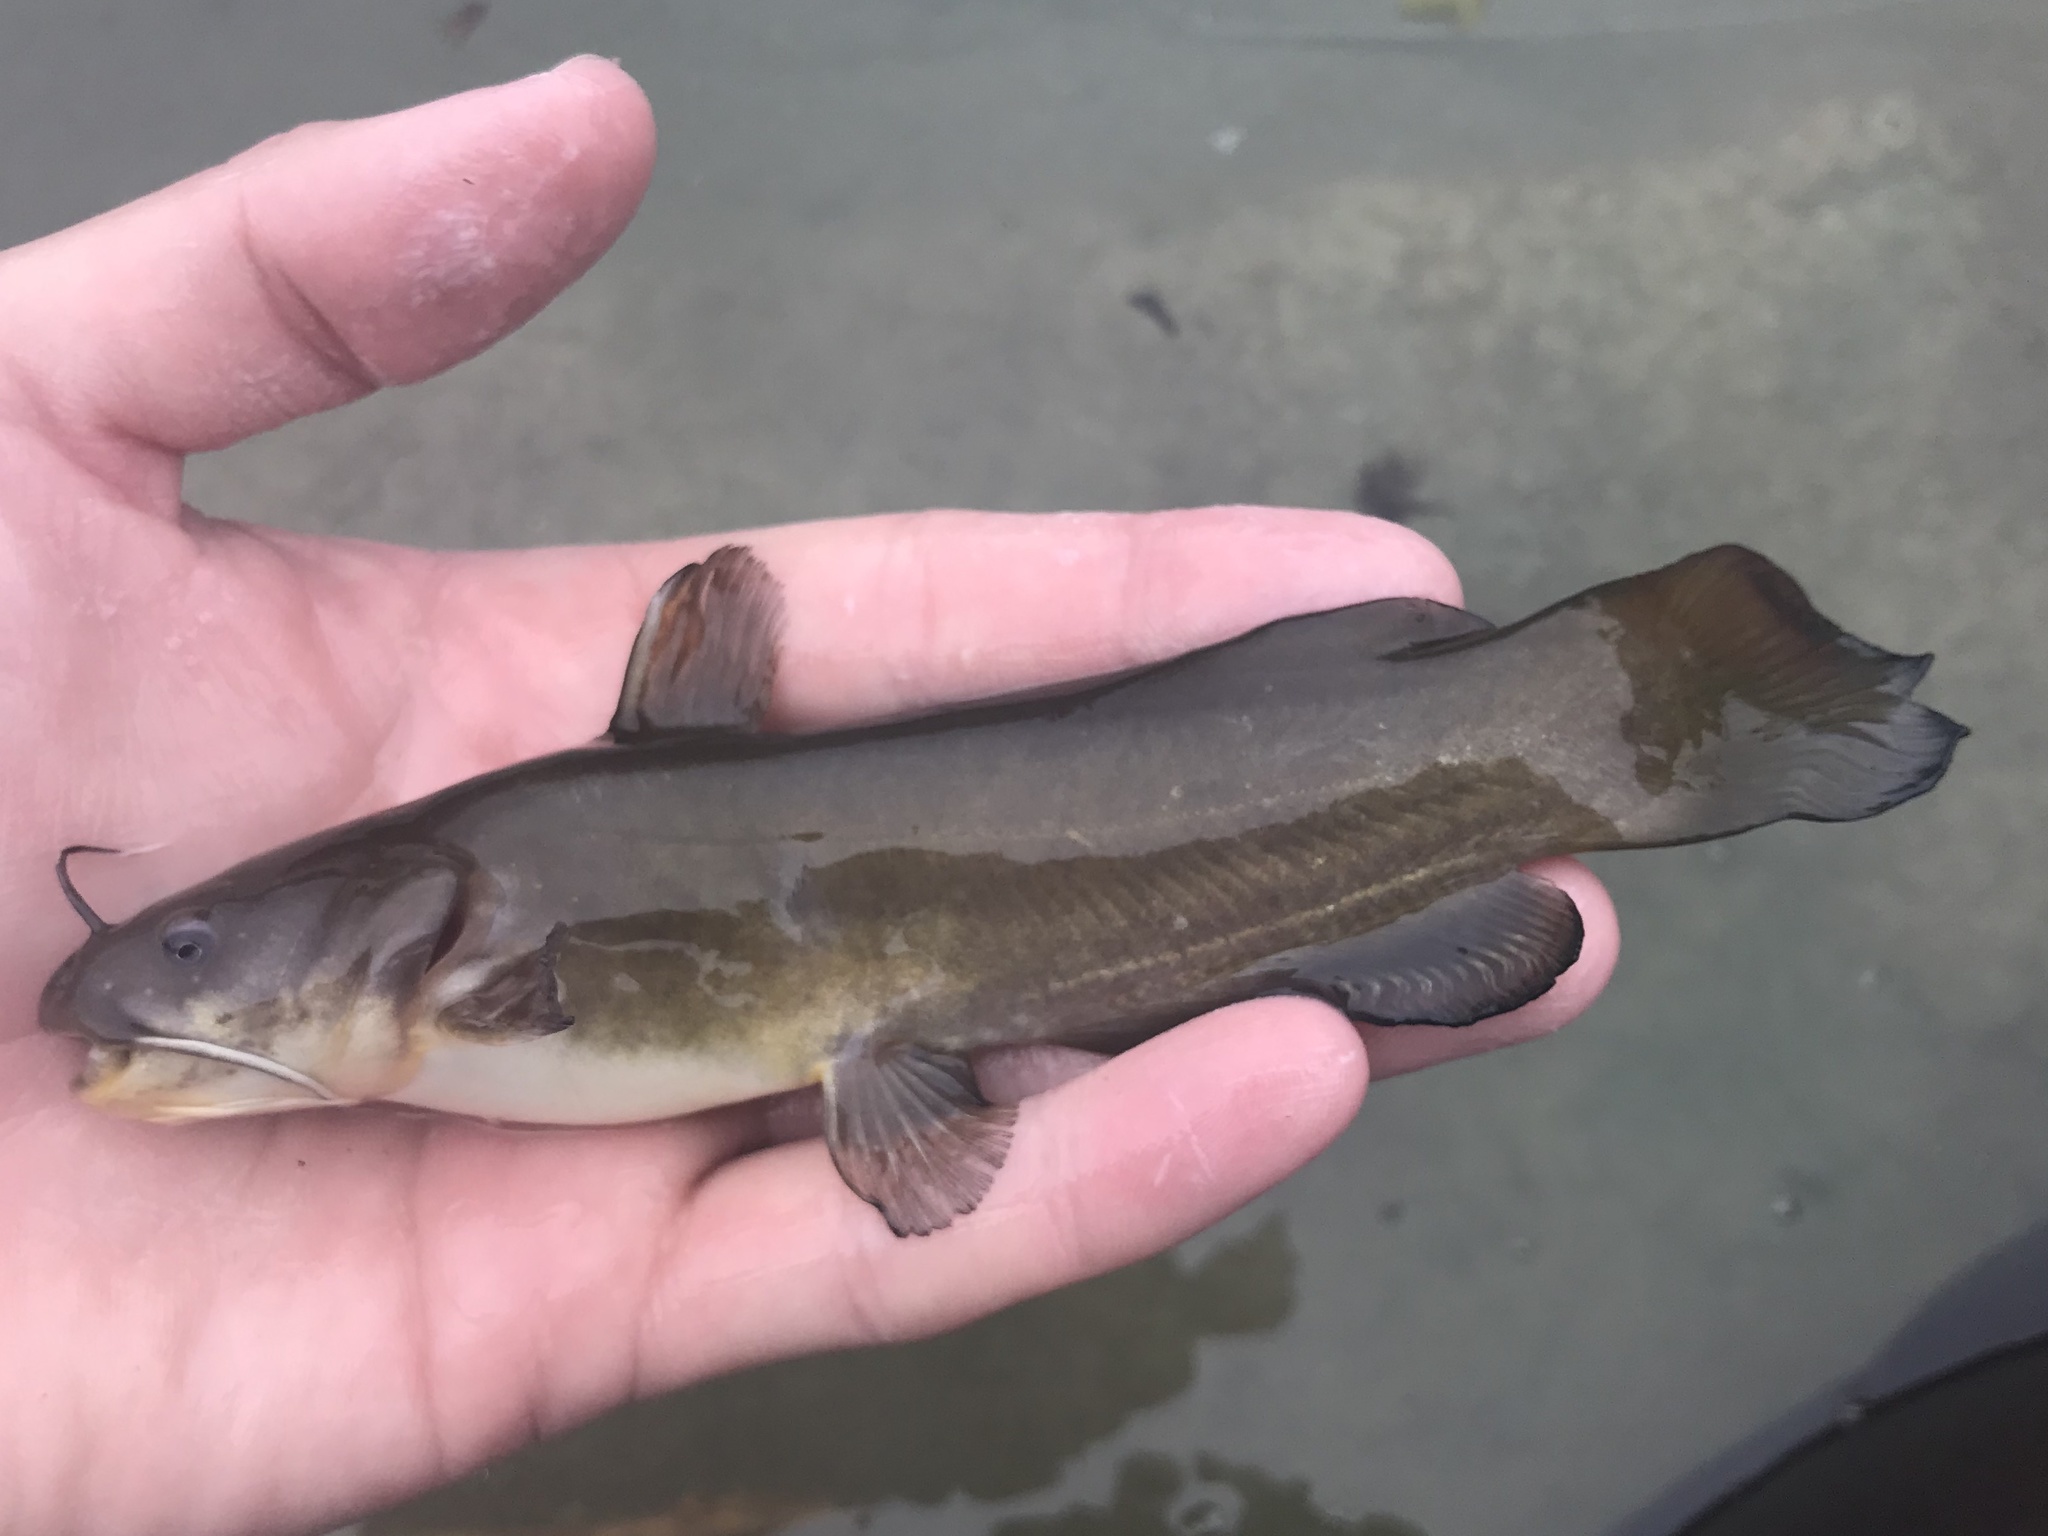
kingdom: Animalia
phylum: Chordata
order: Siluriformes
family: Ictaluridae
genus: Ameiurus
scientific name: Ameiurus natalis
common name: Yellow bullhead
